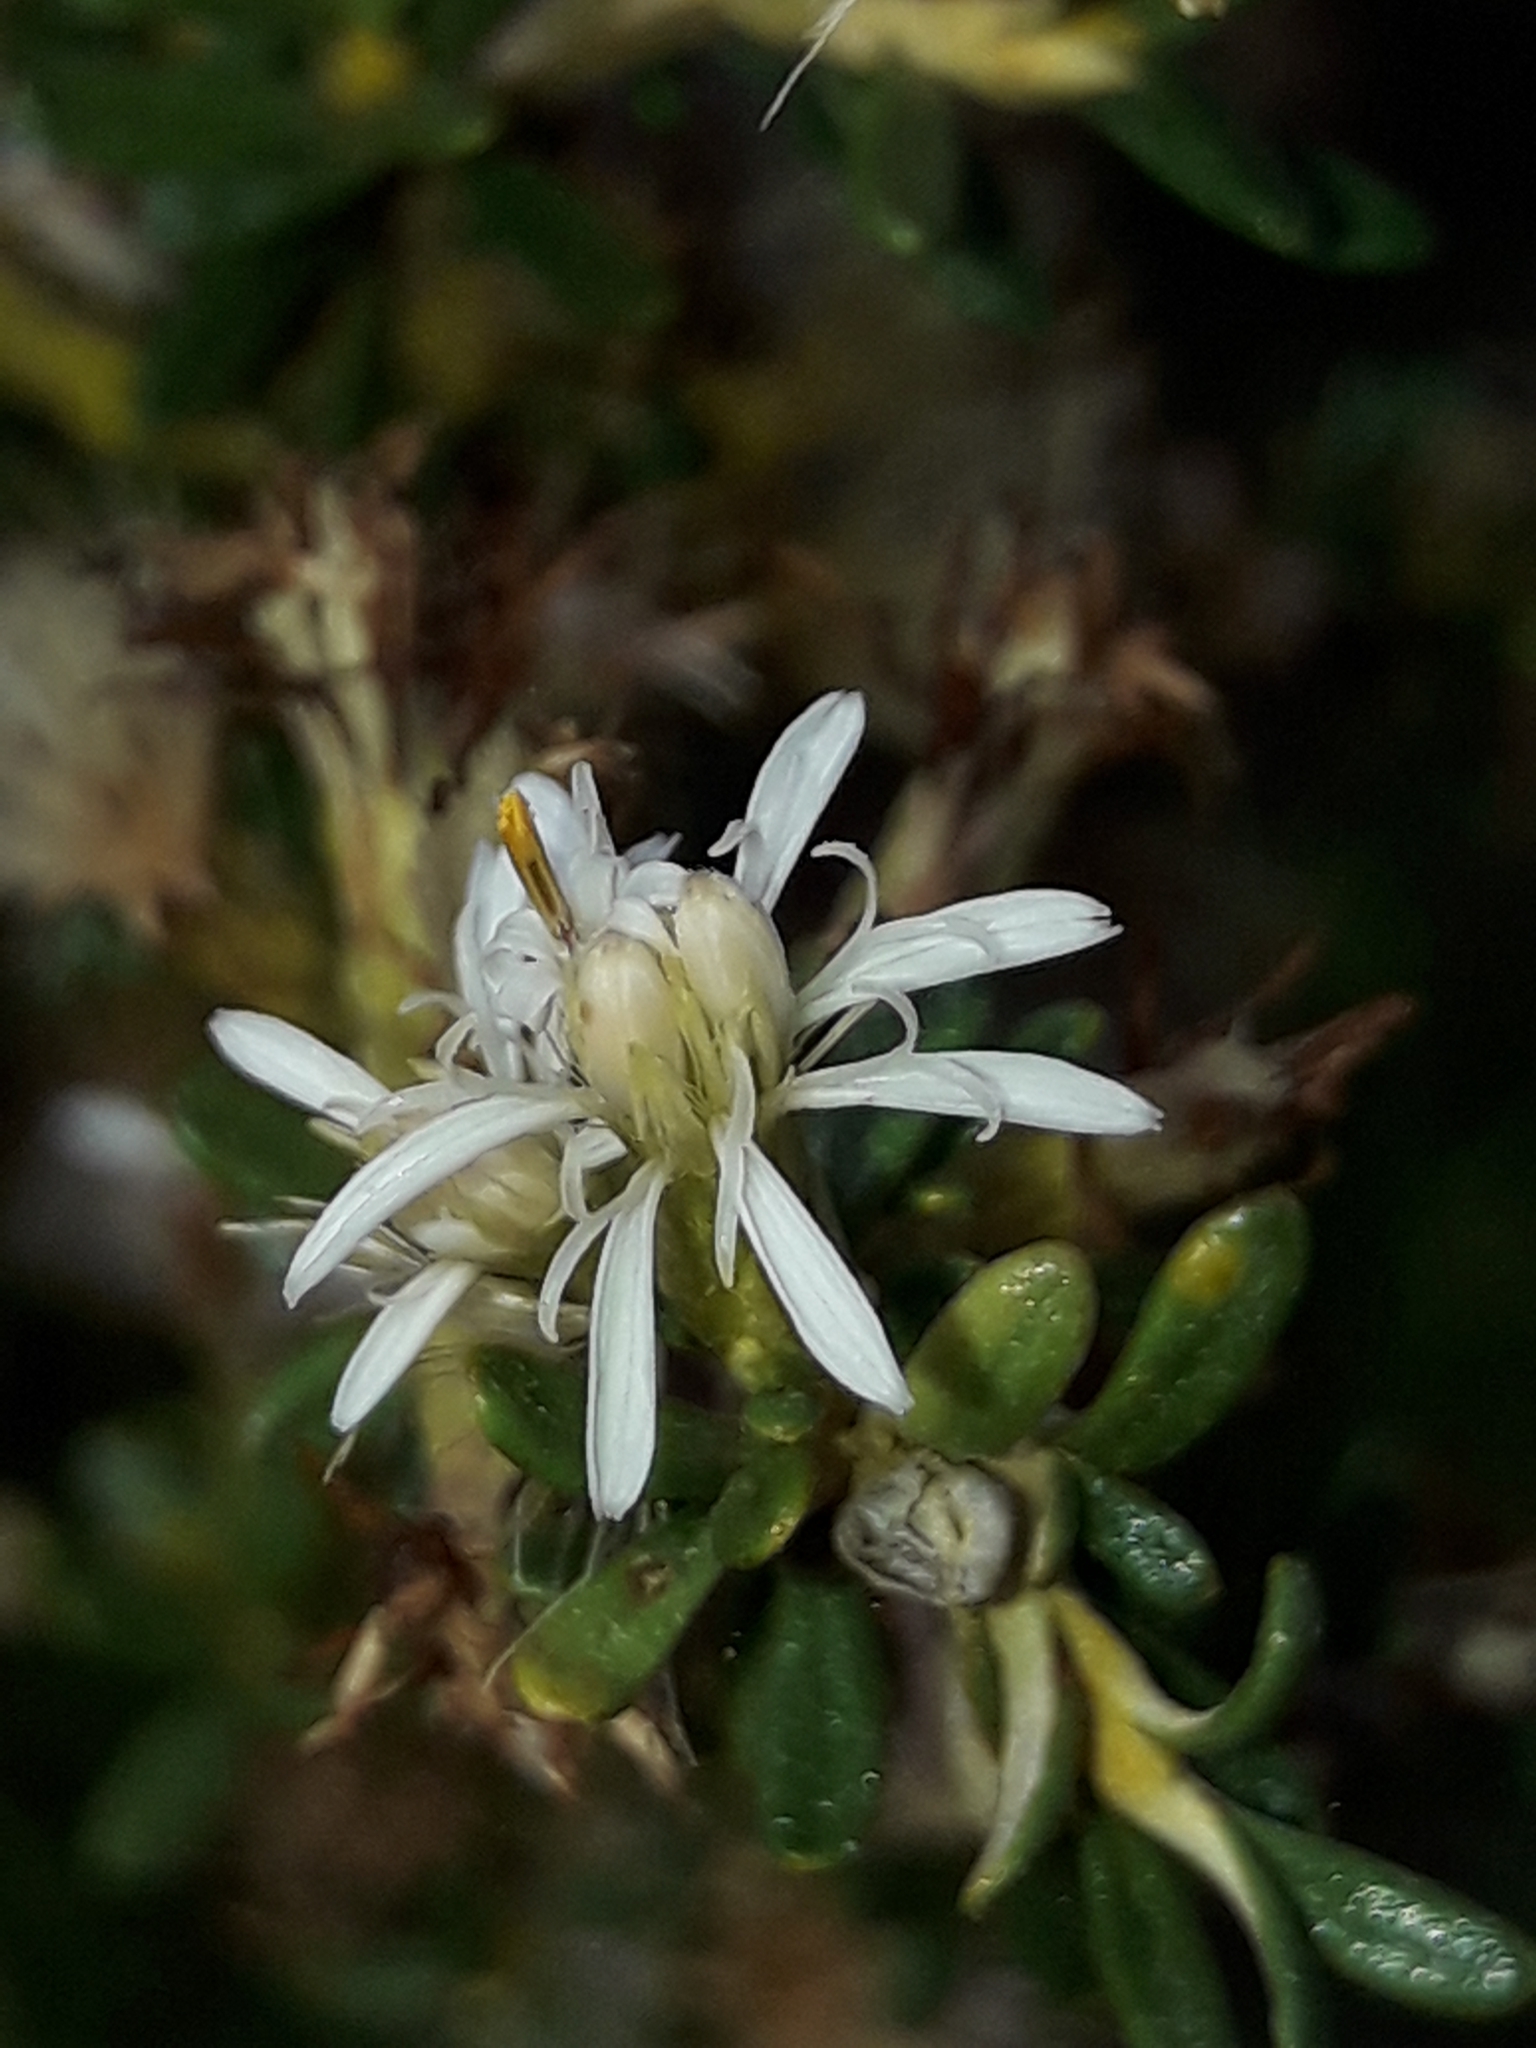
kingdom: Plantae
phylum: Tracheophyta
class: Magnoliopsida
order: Asterales
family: Asteraceae
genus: Olearia
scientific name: Olearia solandri
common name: Coastal daisybush
